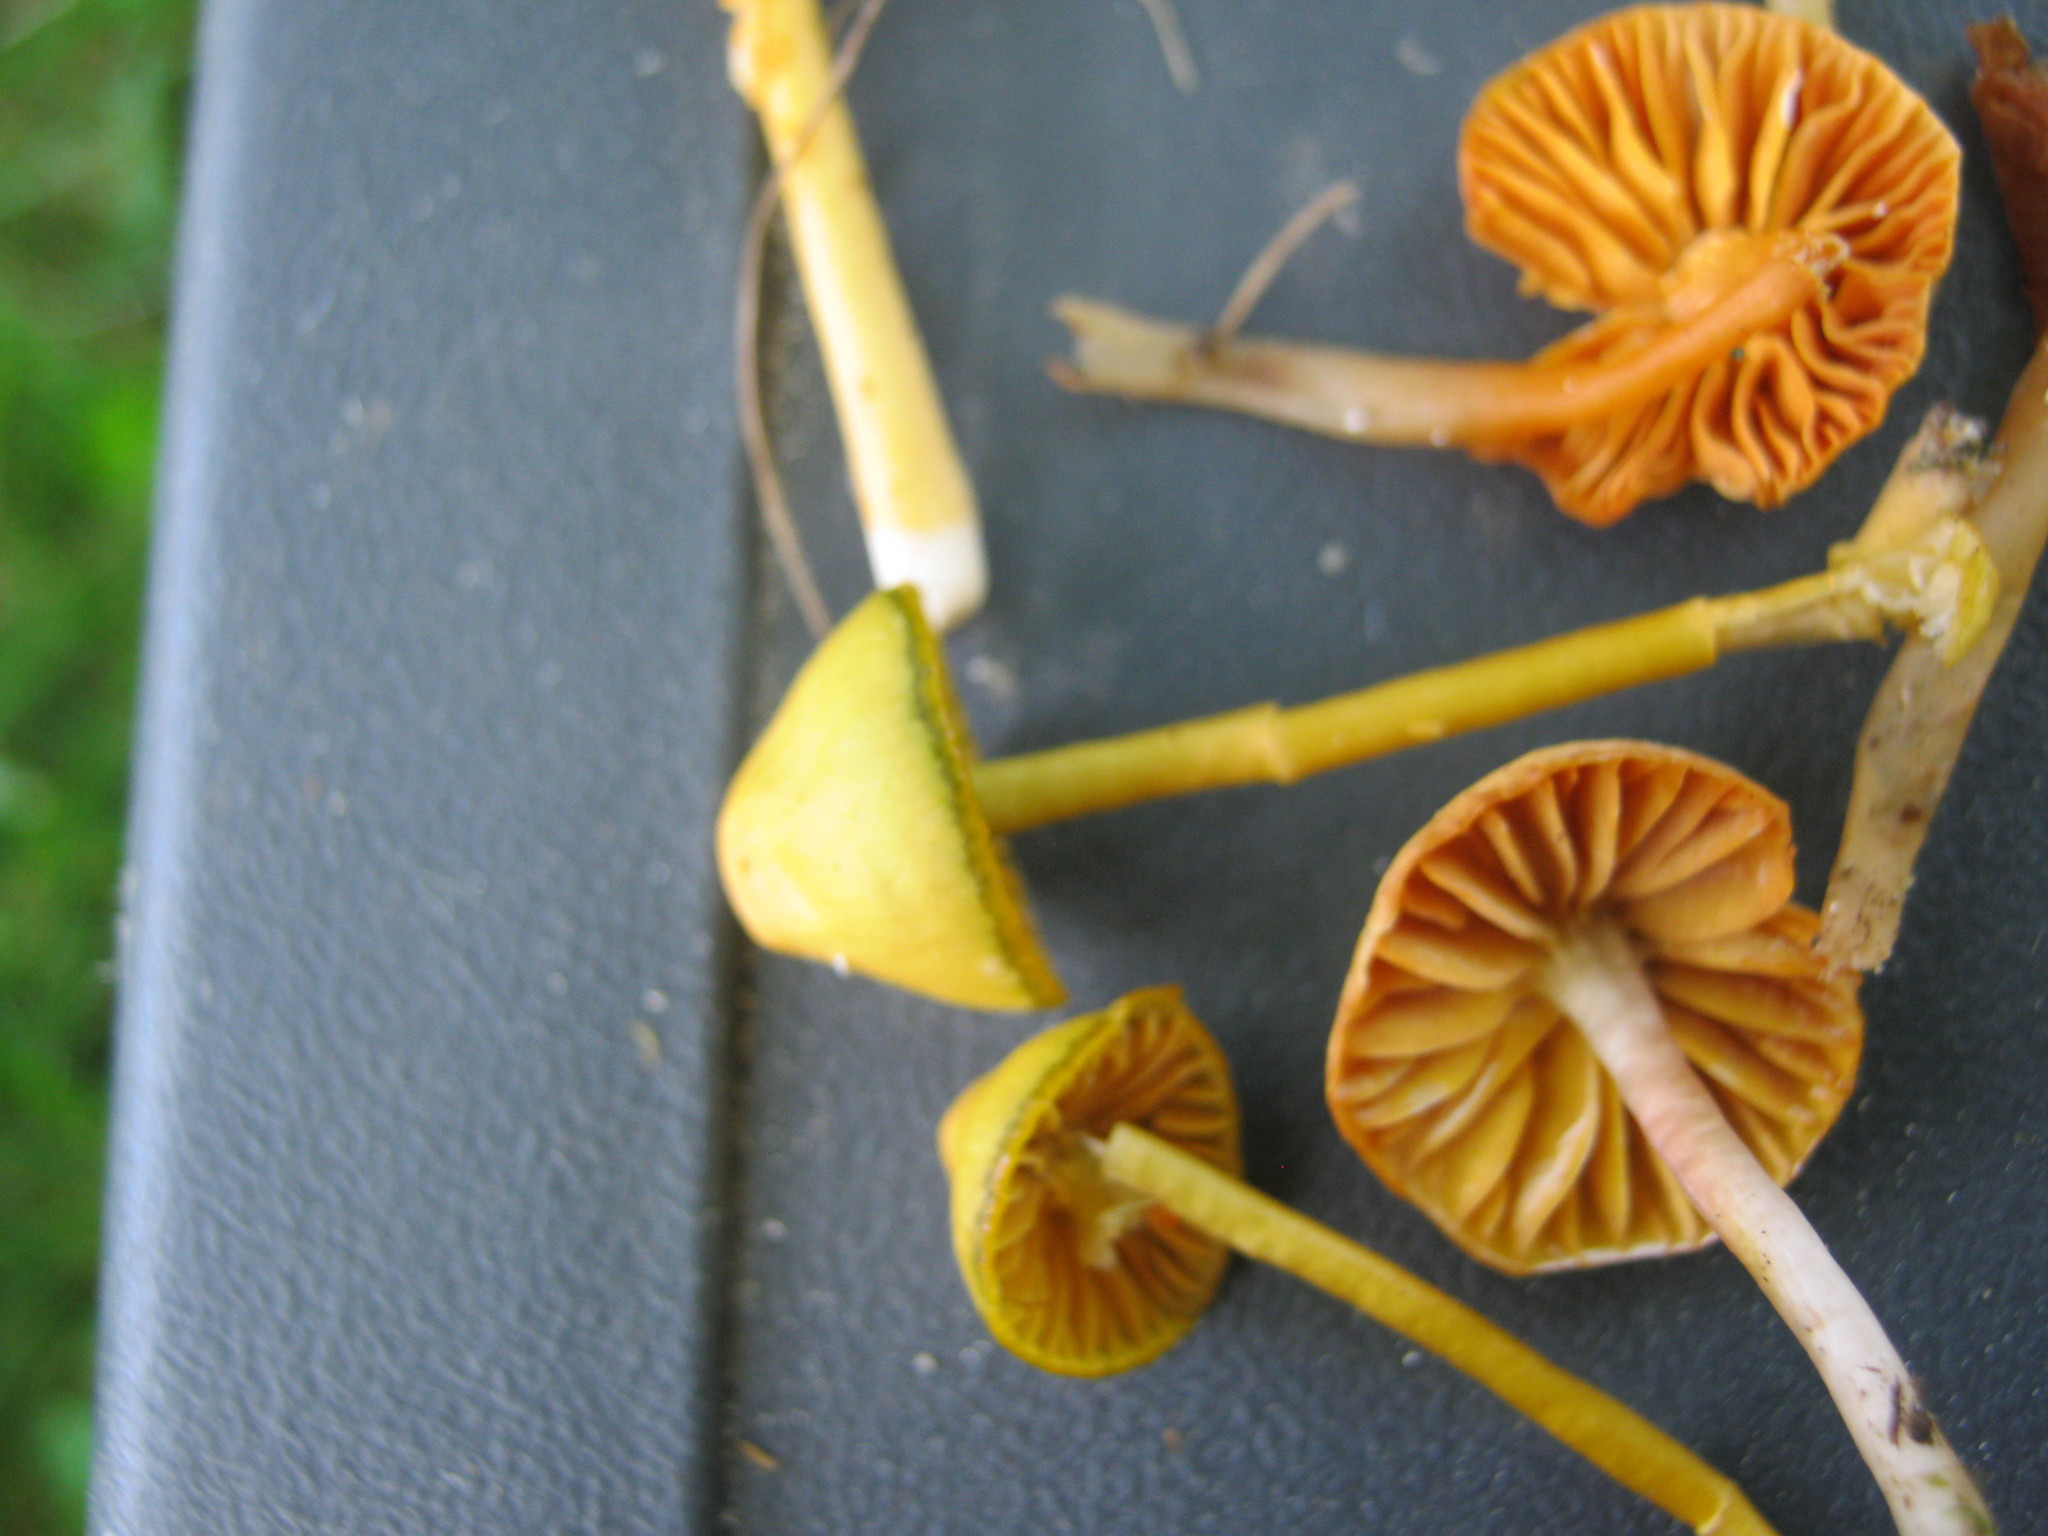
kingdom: Fungi
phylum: Basidiomycota
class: Agaricomycetes
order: Agaricales
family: Hygrophoraceae
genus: Gliophorus
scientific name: Gliophorus psittacinus
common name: Parrot wax-cap
